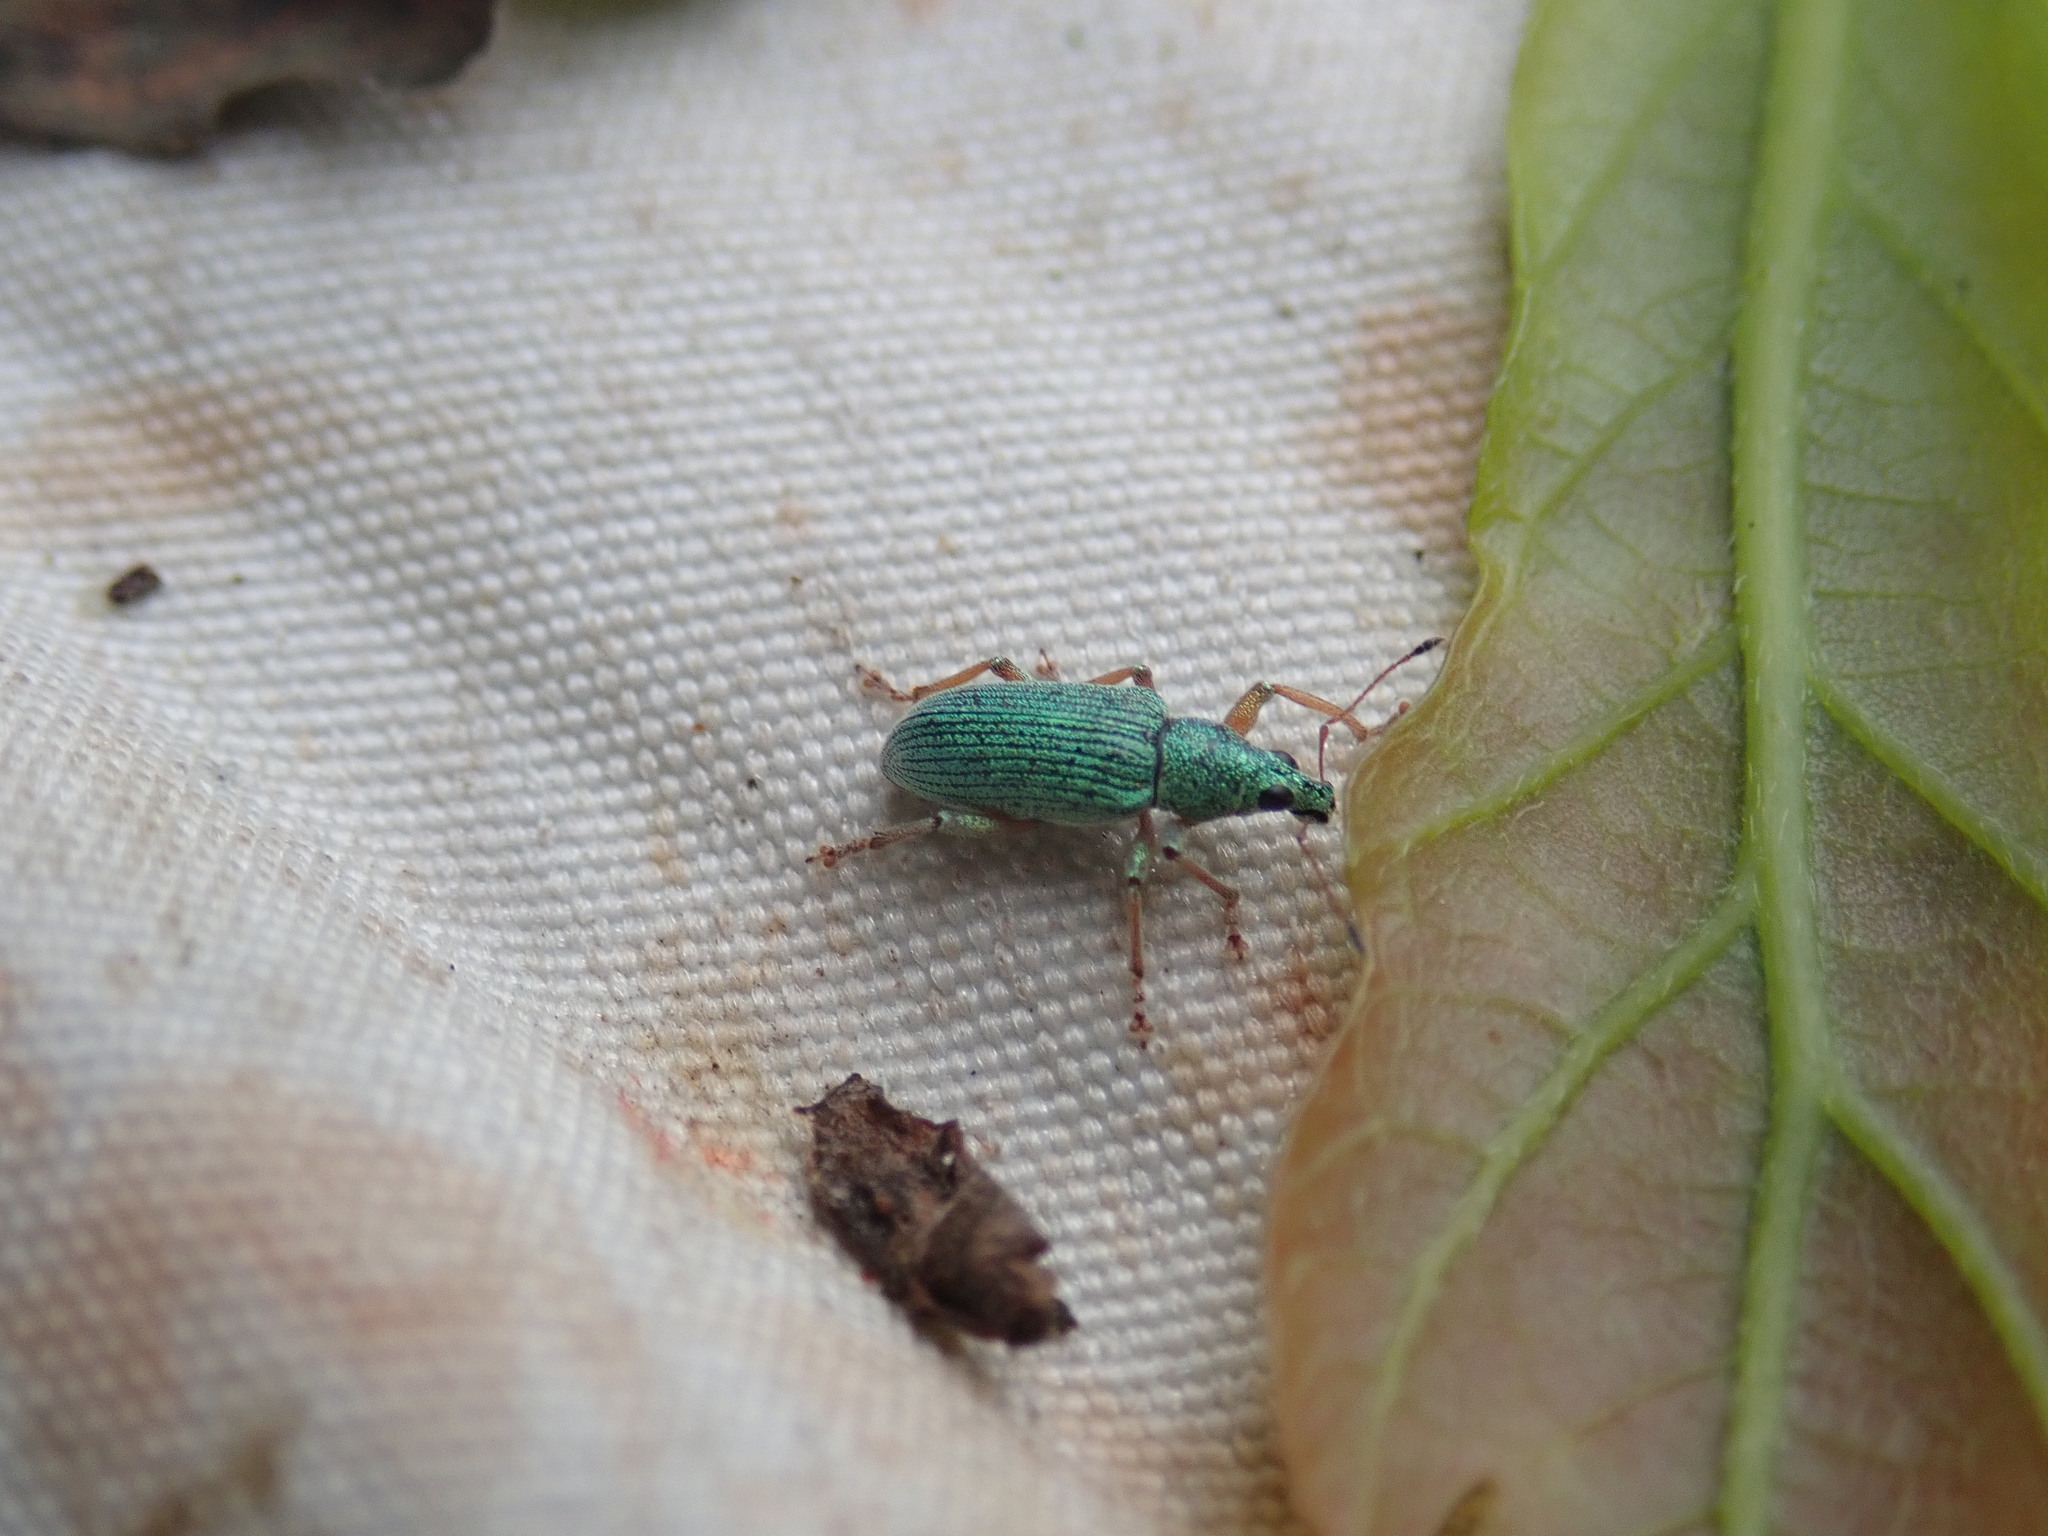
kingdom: Animalia
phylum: Arthropoda
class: Insecta
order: Coleoptera
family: Curculionidae
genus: Polydrusus
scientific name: Polydrusus formosus
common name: Weevil
